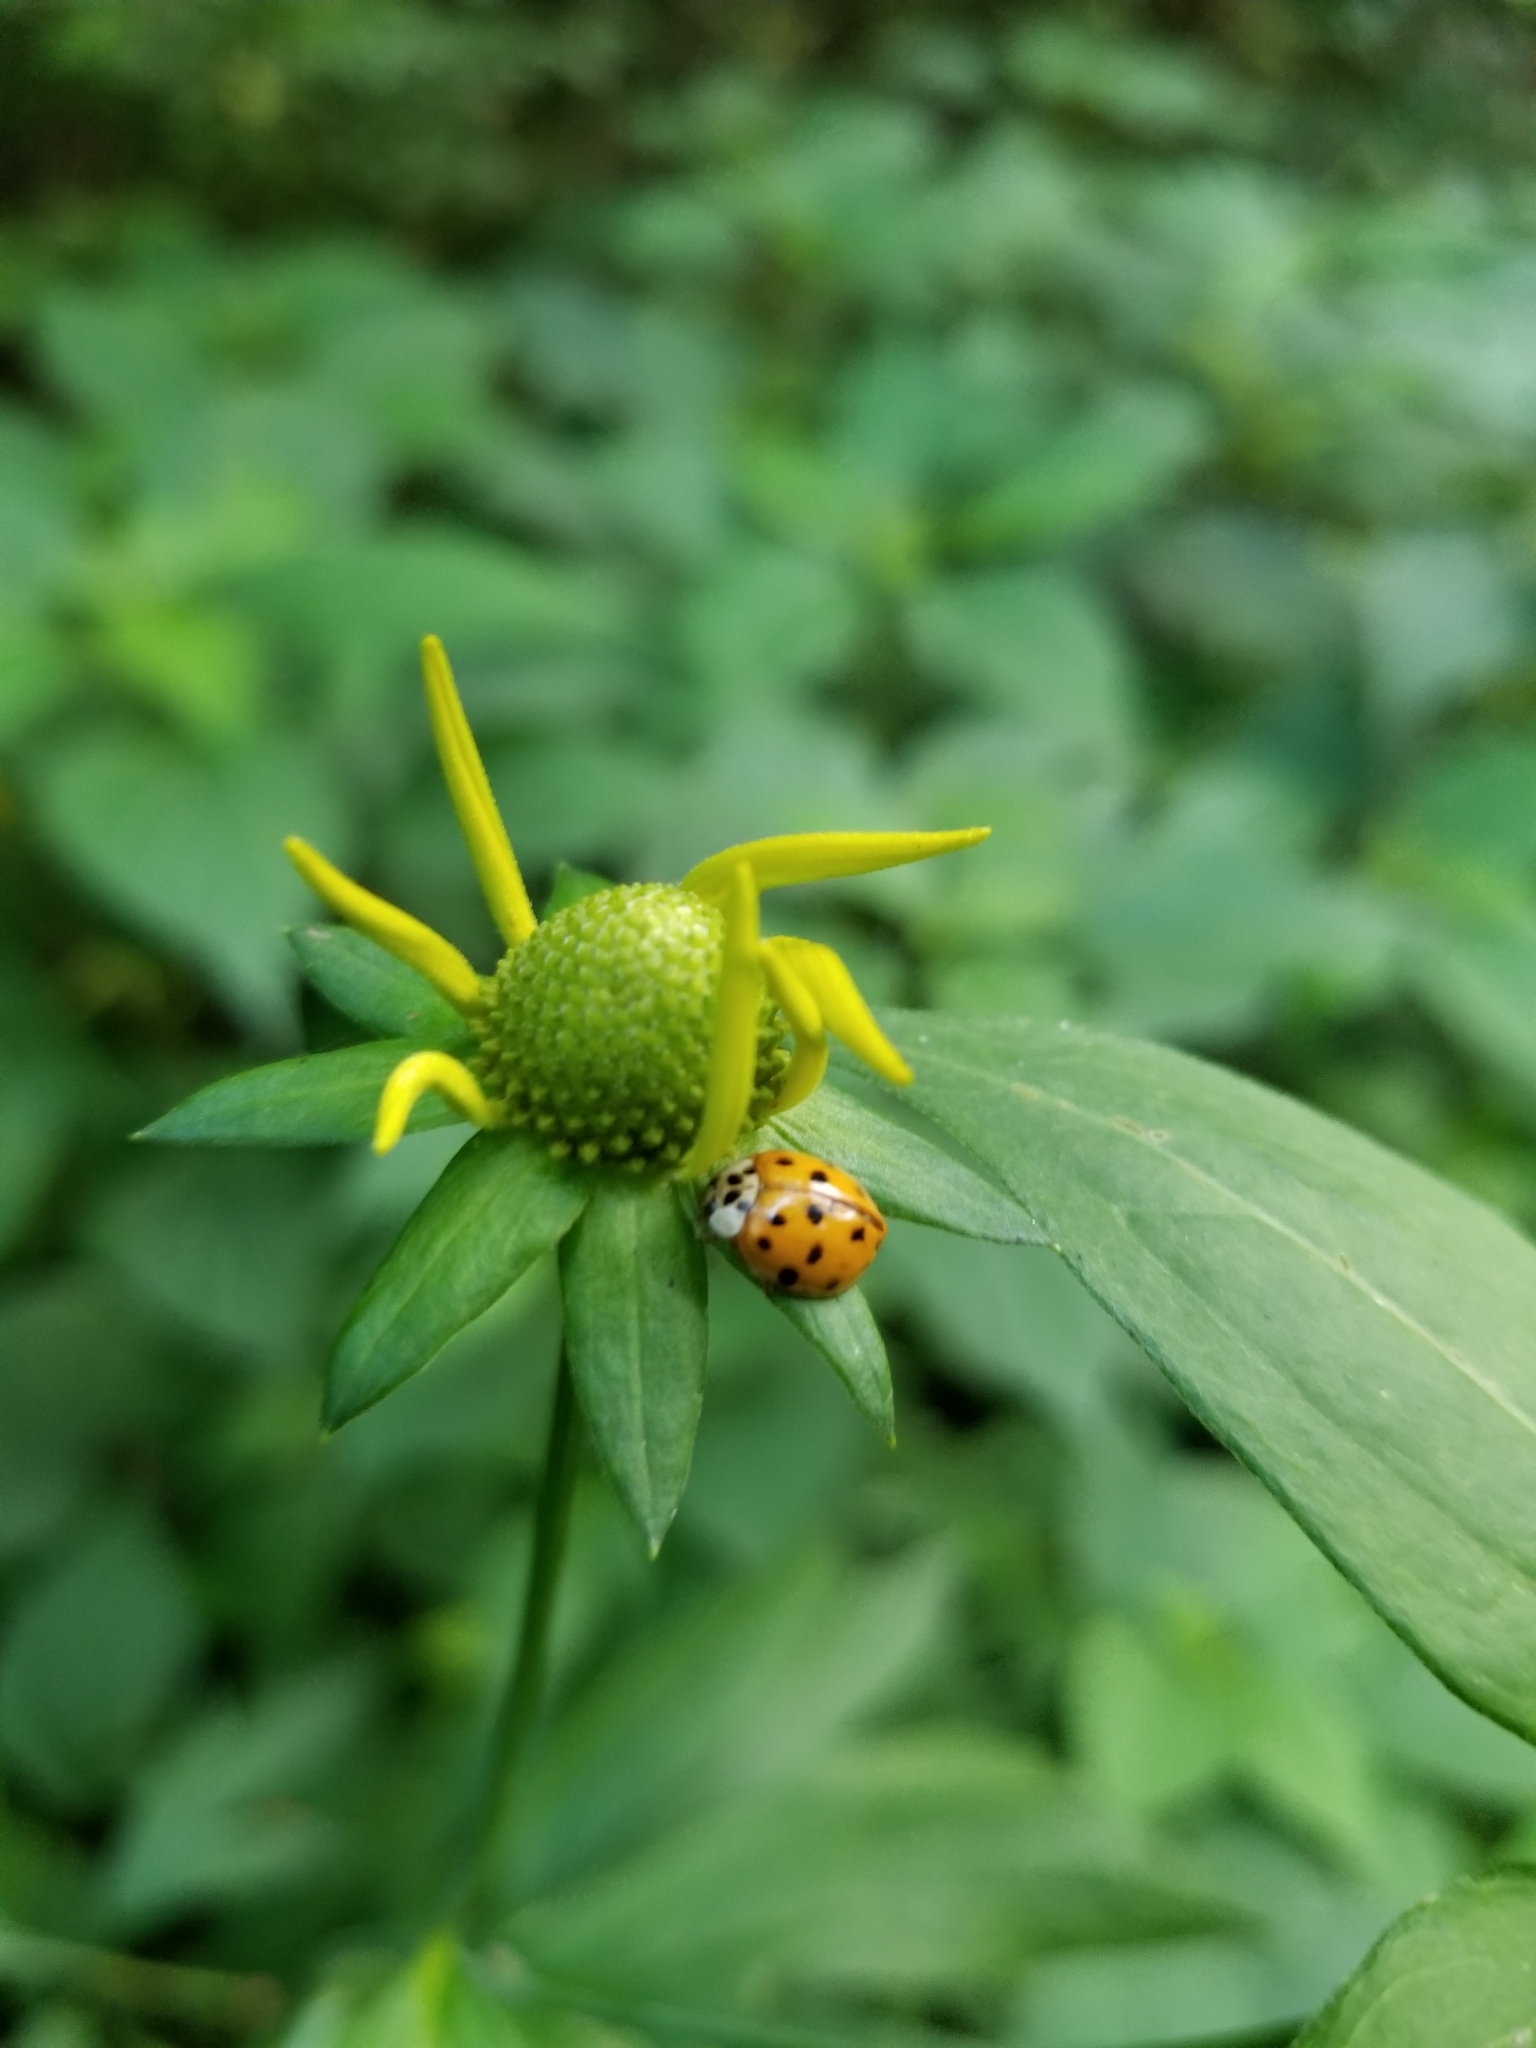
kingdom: Animalia
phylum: Arthropoda
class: Insecta
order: Coleoptera
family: Coccinellidae
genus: Harmonia
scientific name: Harmonia axyridis
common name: Harlequin ladybird
